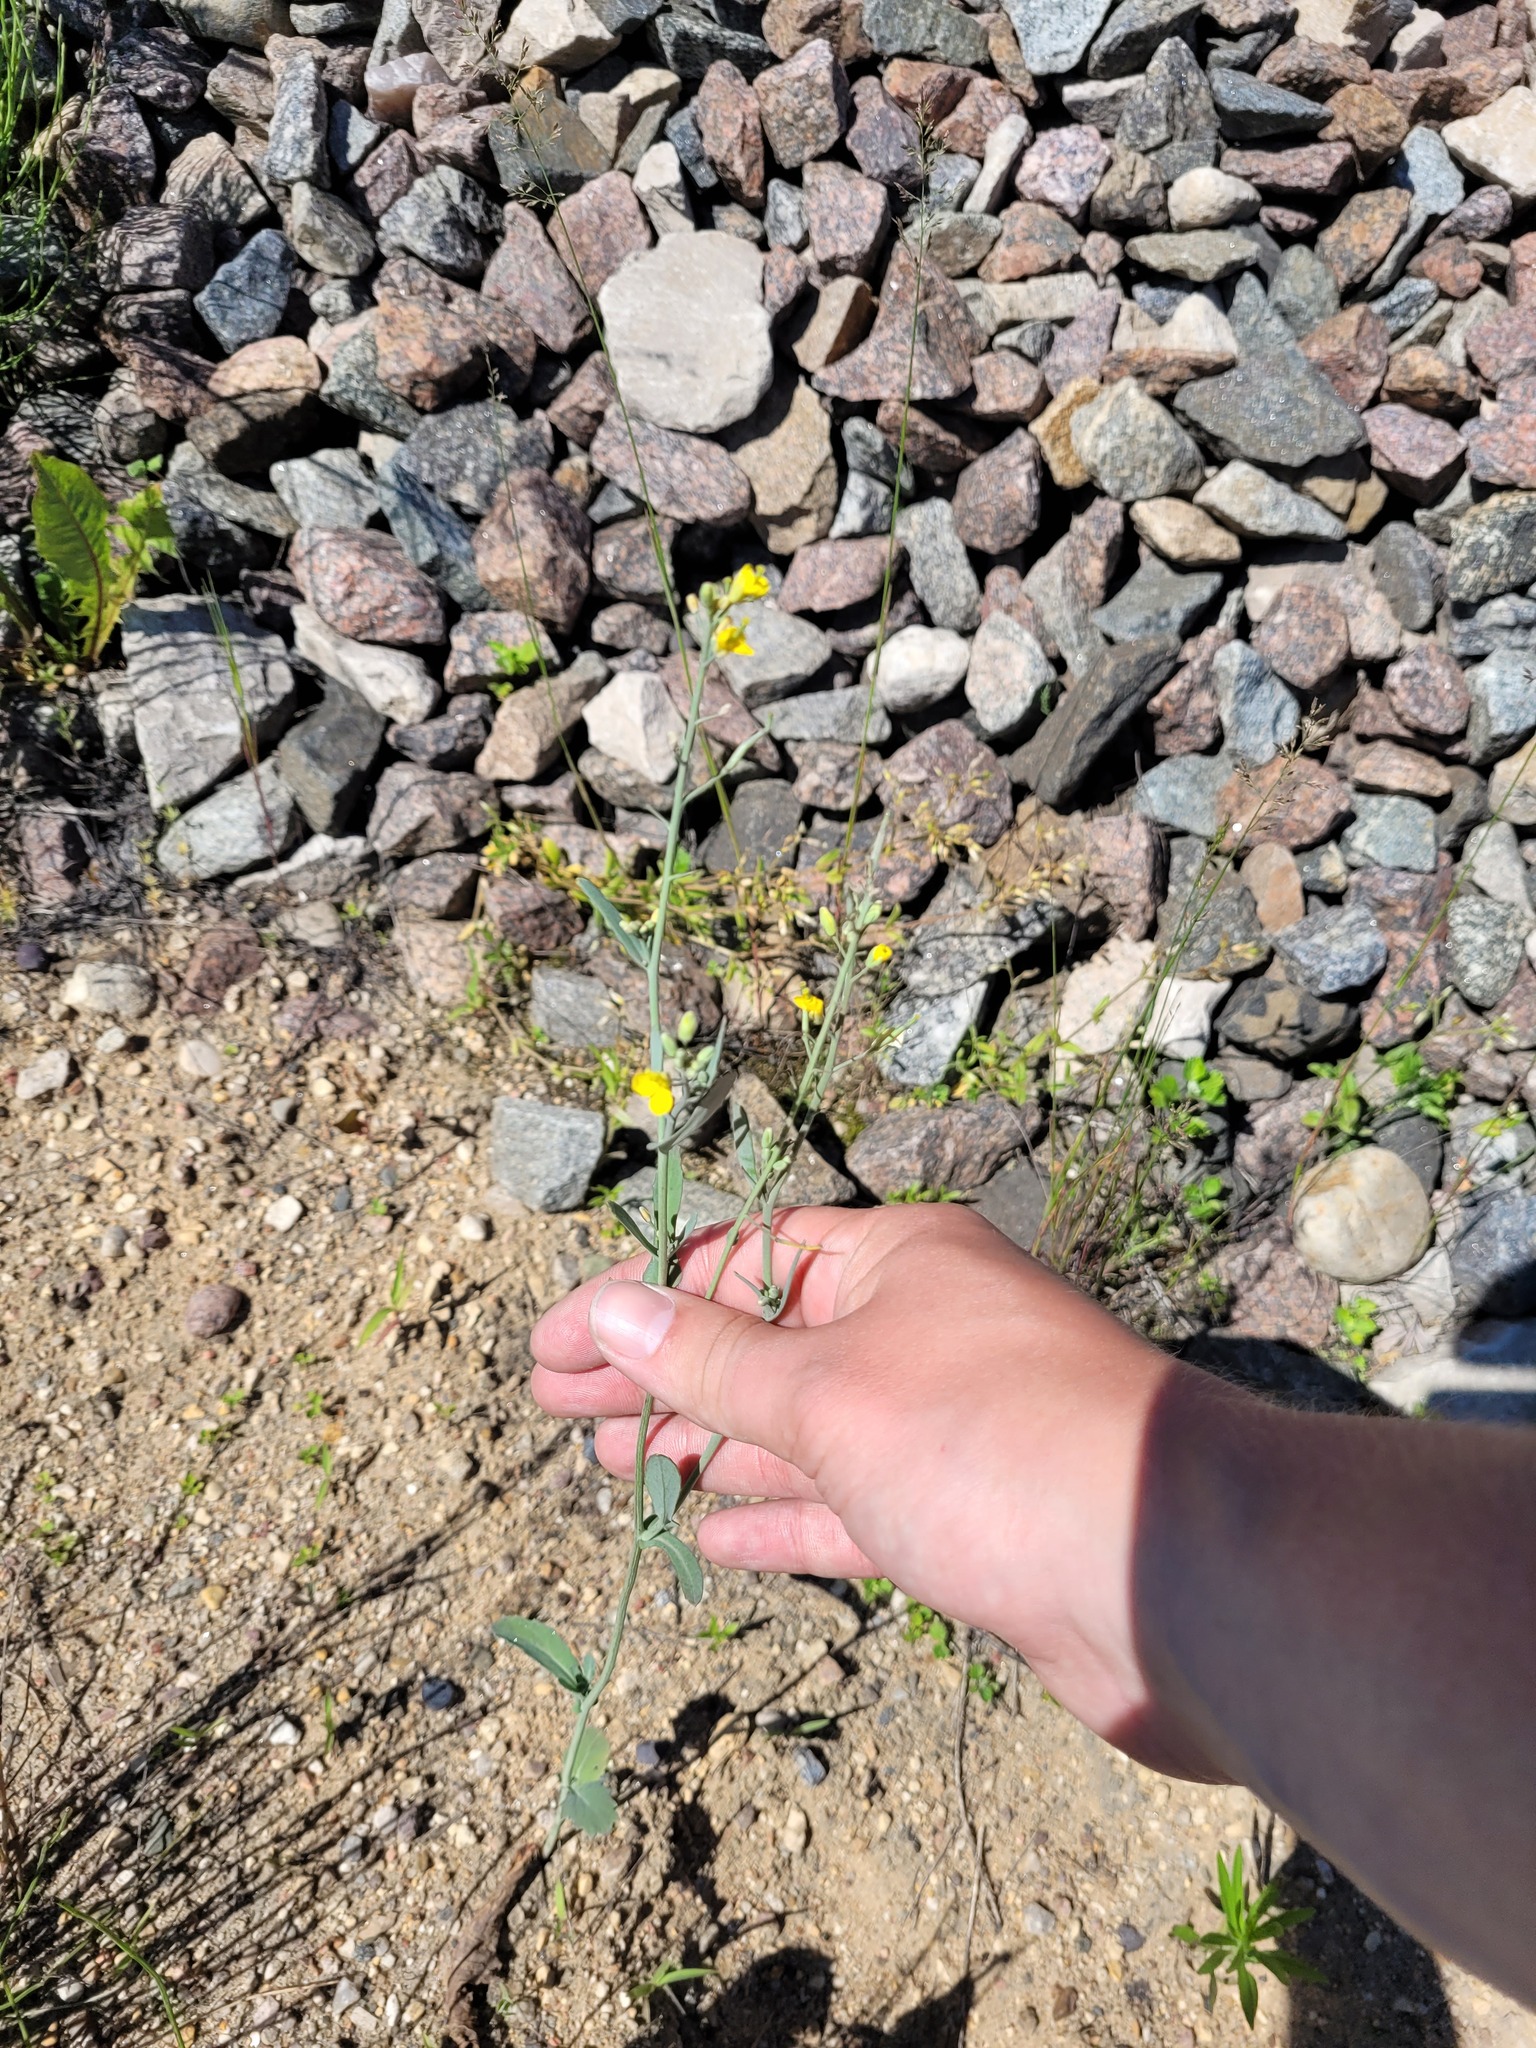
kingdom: Plantae
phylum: Tracheophyta
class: Magnoliopsida
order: Brassicales
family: Brassicaceae
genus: Brassica
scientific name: Brassica napus
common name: Rape
